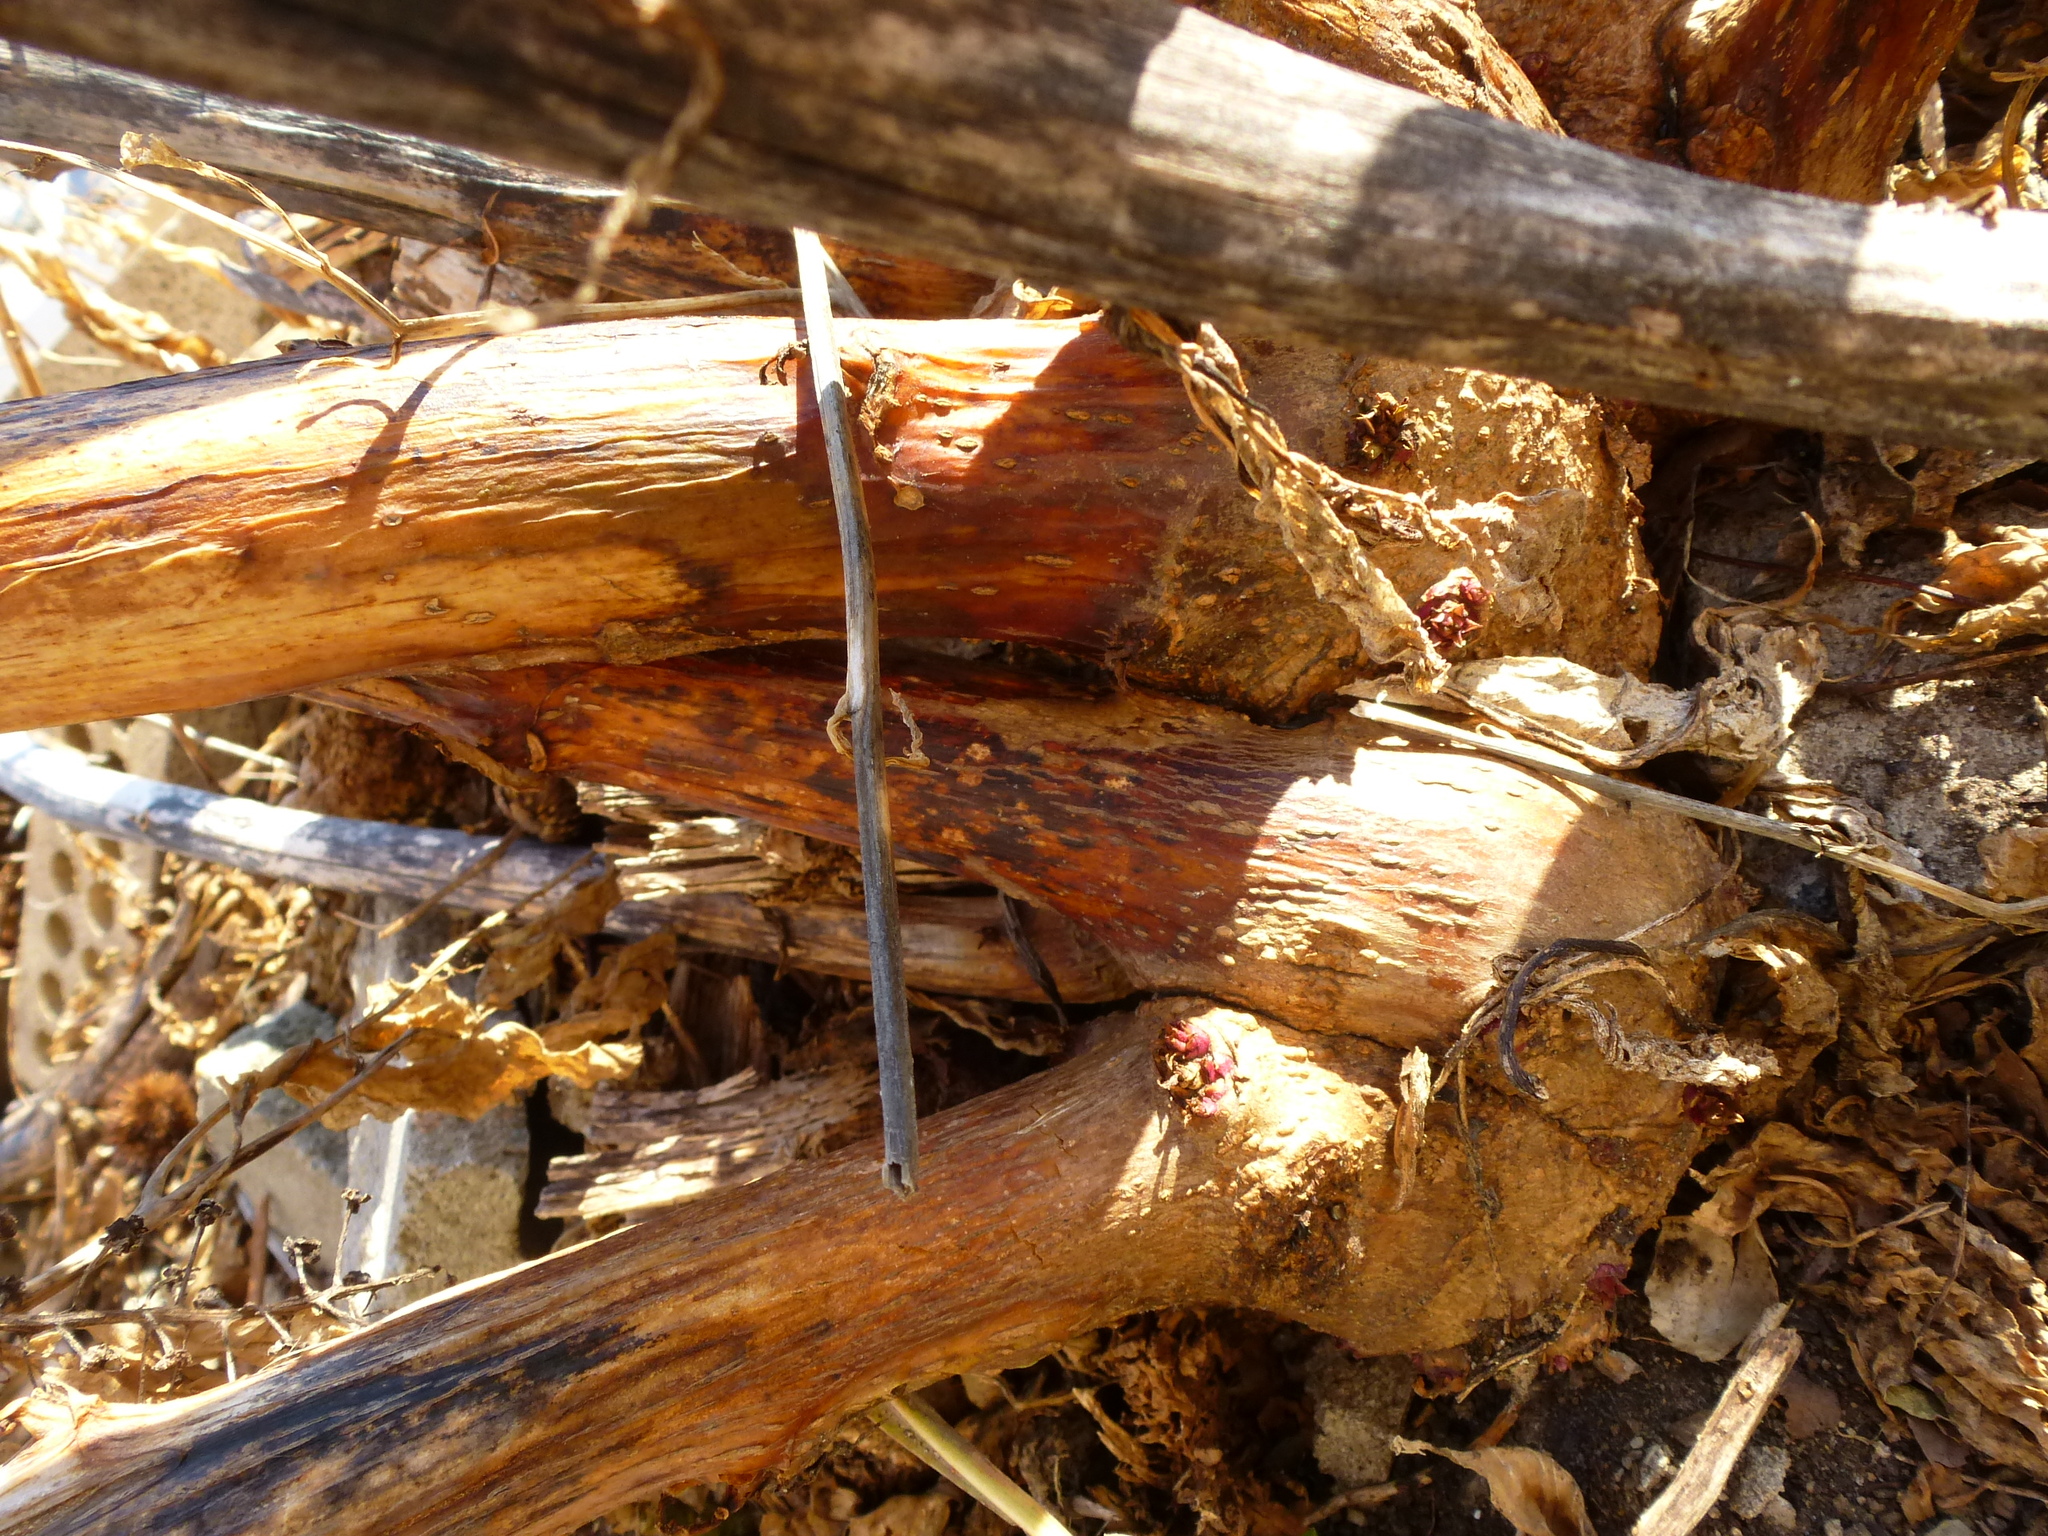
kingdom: Plantae
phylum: Tracheophyta
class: Magnoliopsida
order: Caryophyllales
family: Phytolaccaceae
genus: Phytolacca
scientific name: Phytolacca americana
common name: American pokeweed
